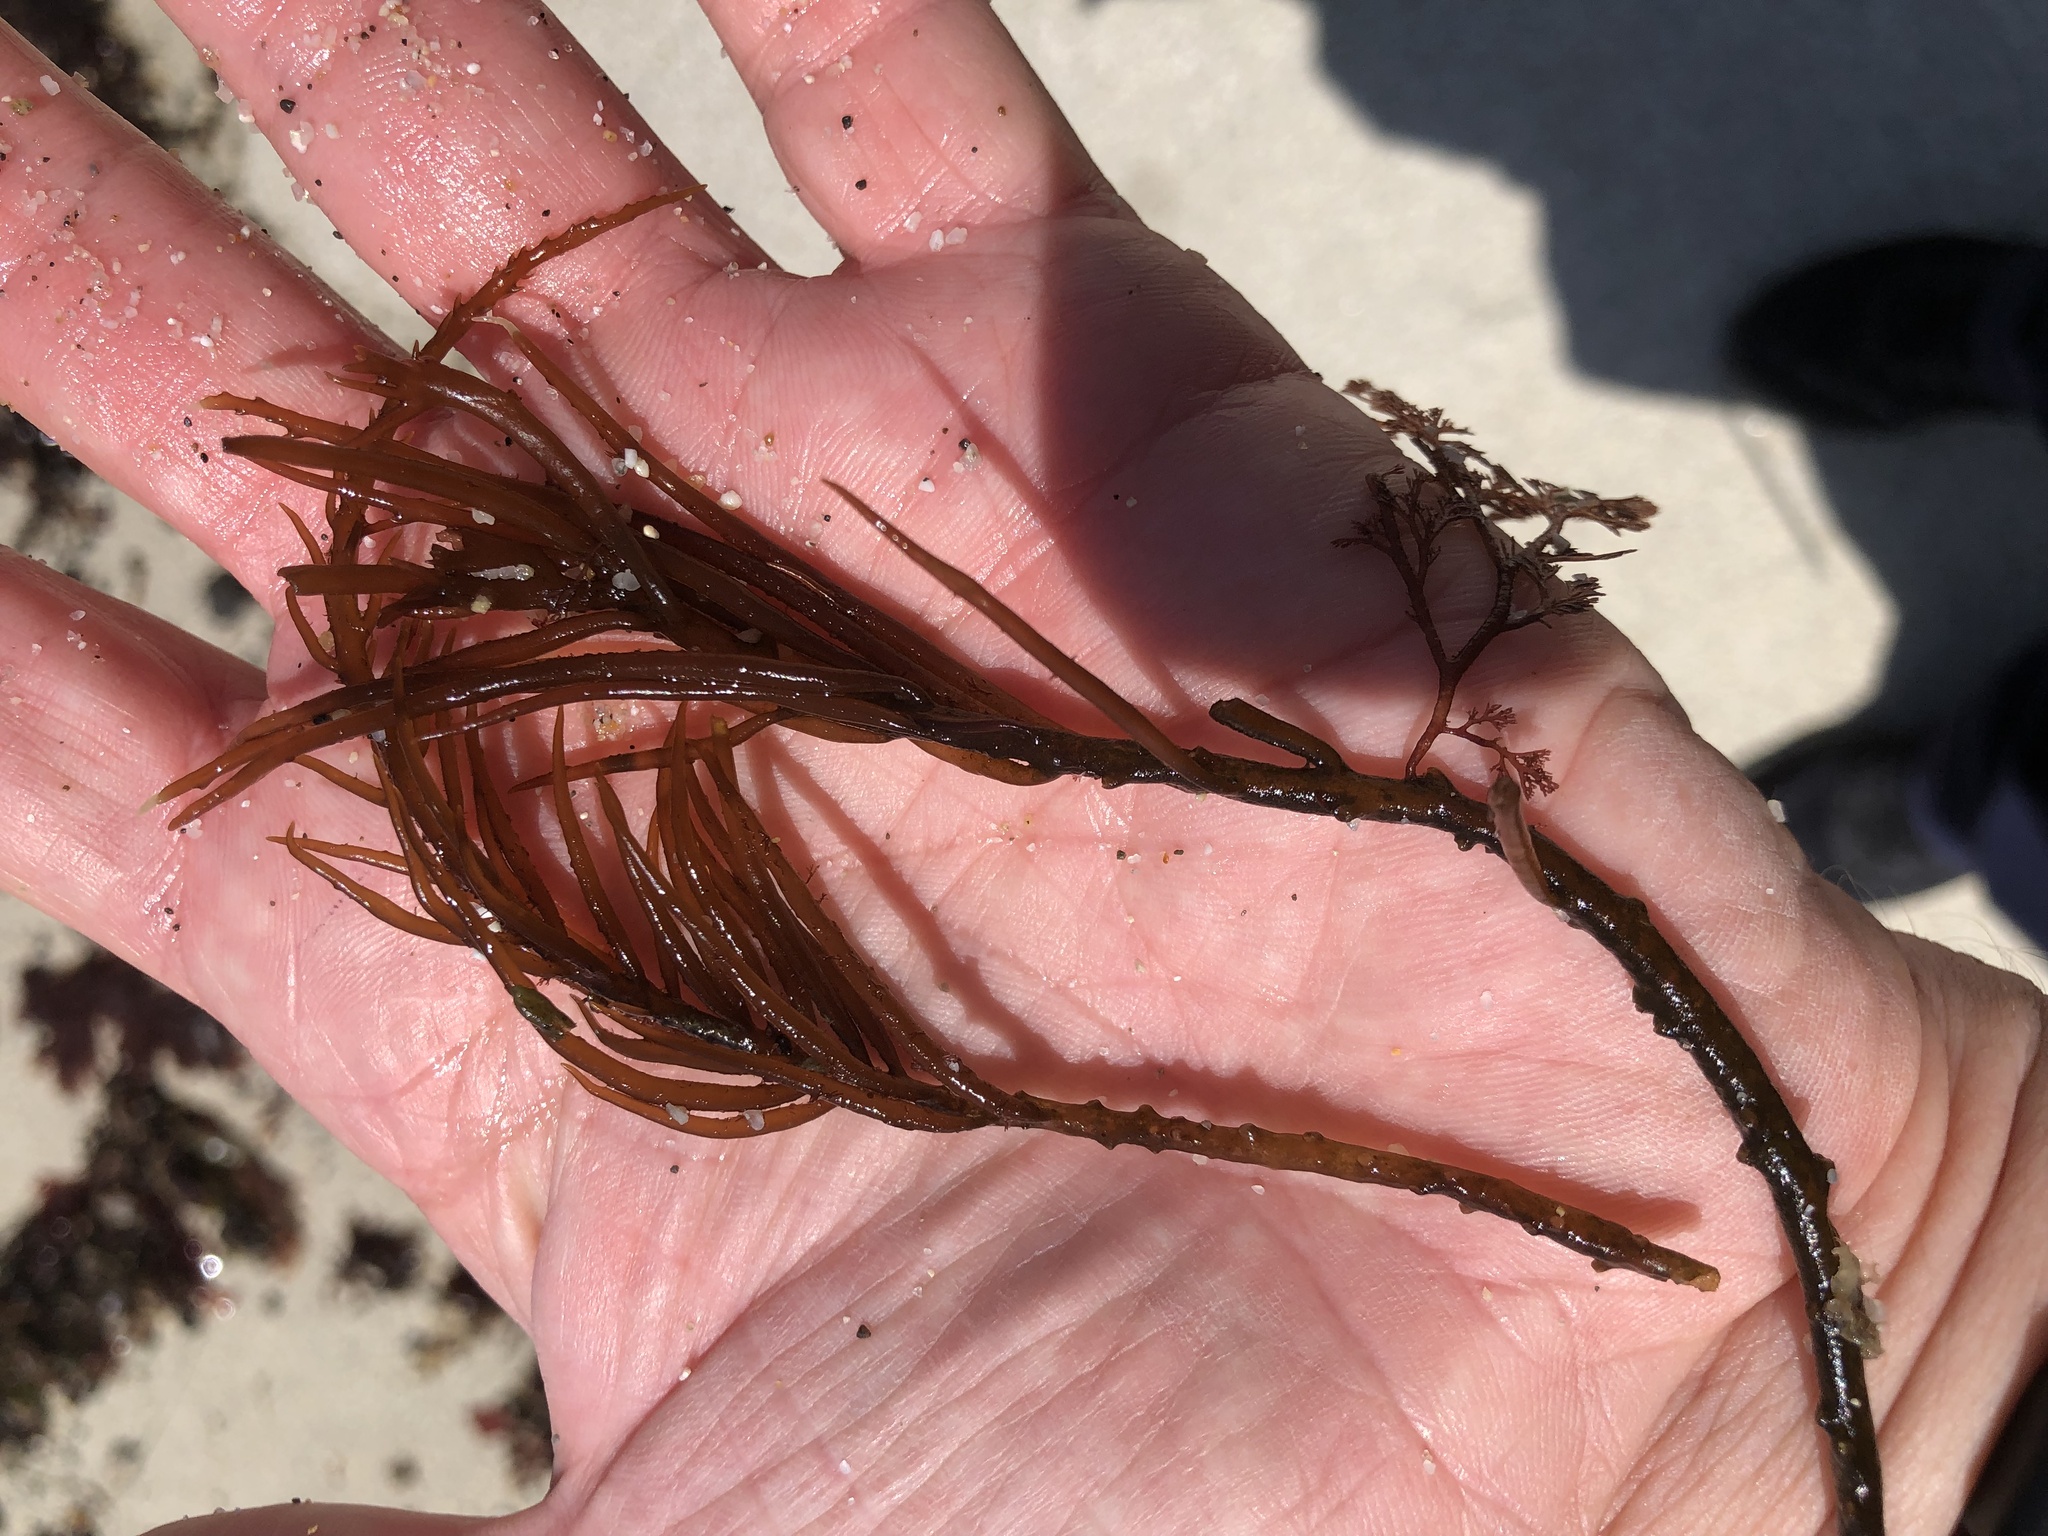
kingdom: Plantae
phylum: Rhodophyta
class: Florideophyceae
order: Gigartinales
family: Solieriaceae
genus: Sarcodiotheca
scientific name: Sarcodiotheca gaudichaudii
